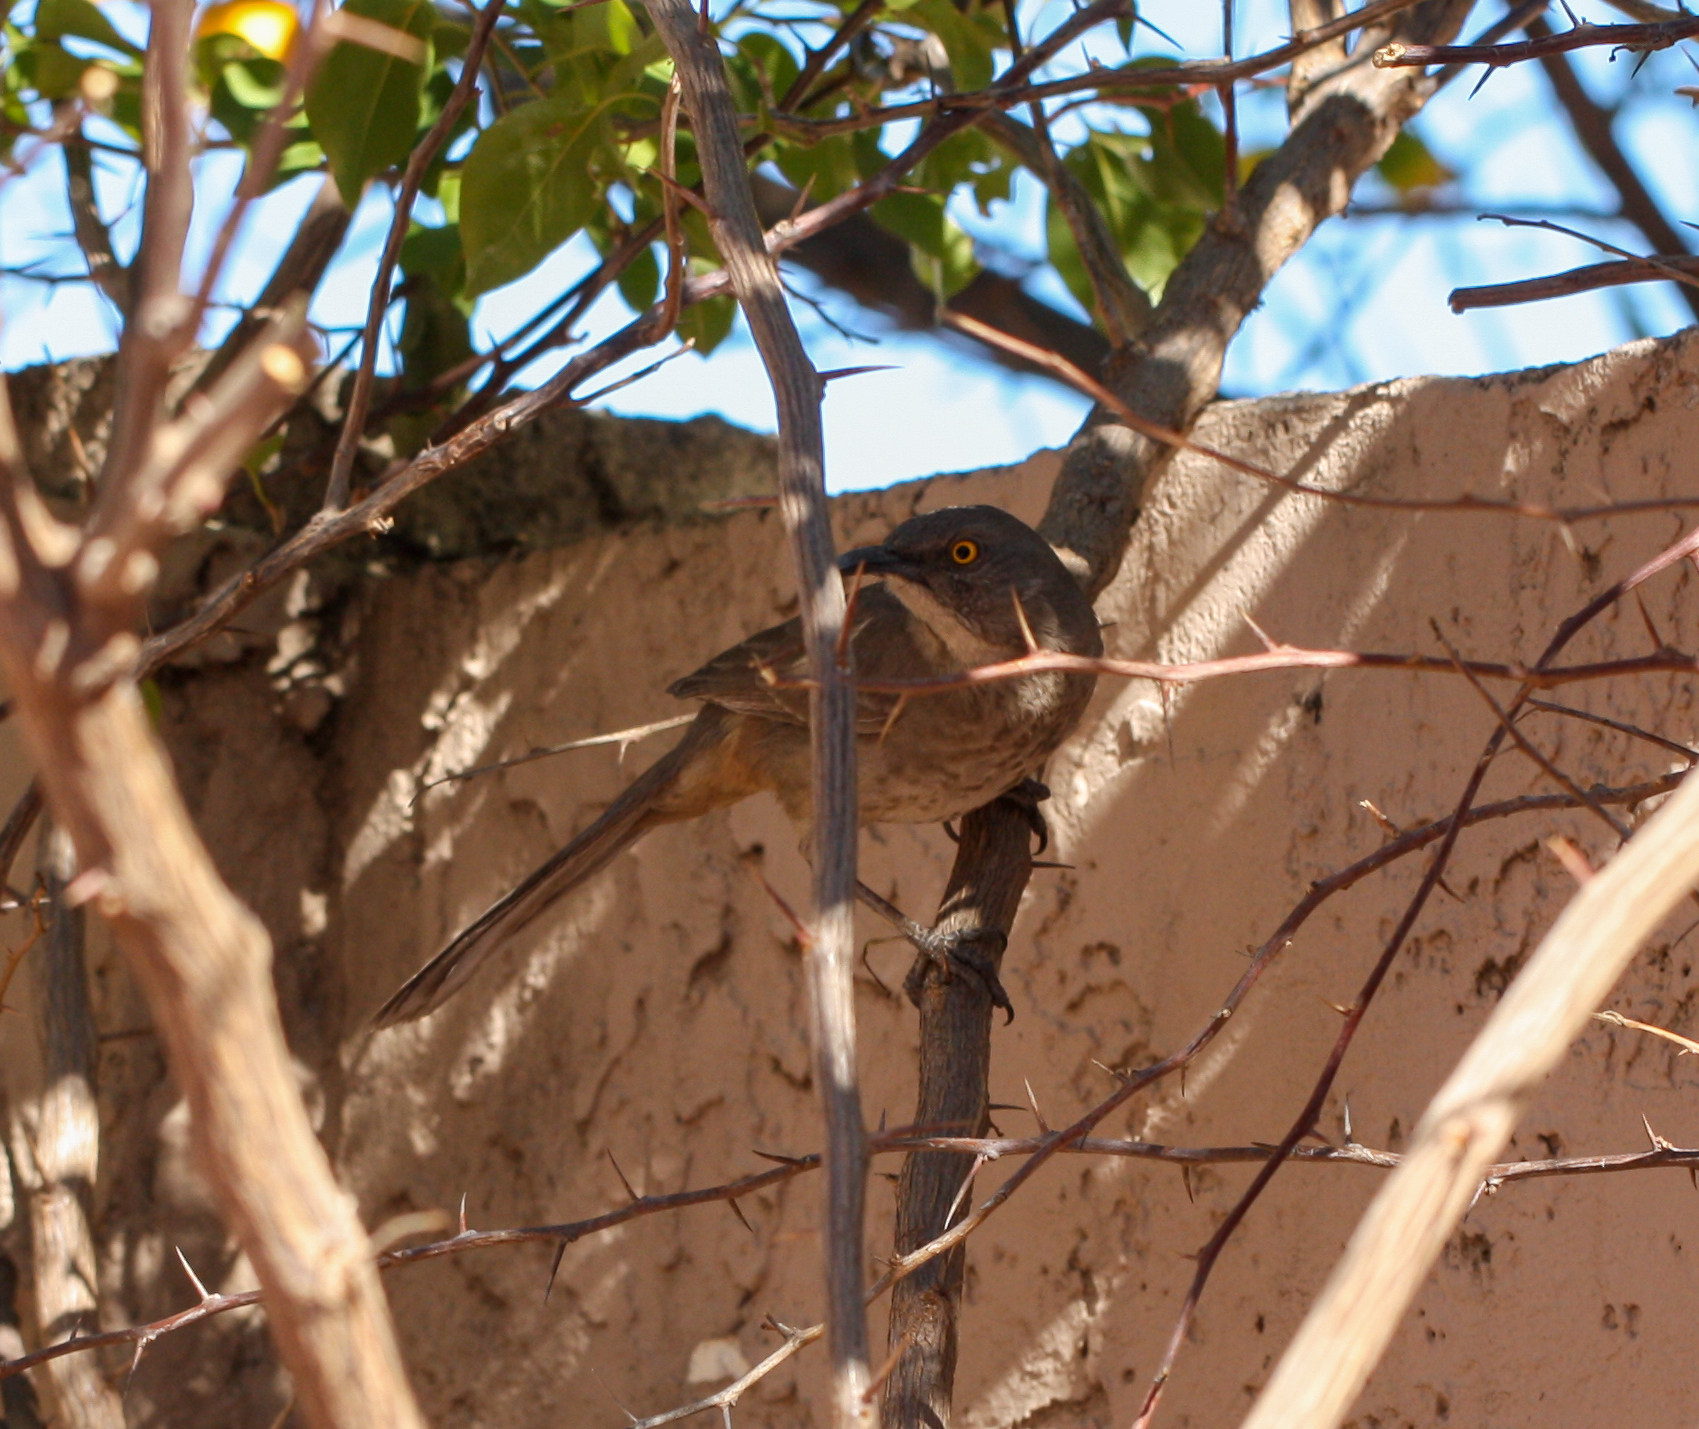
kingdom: Animalia
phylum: Chordata
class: Aves
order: Passeriformes
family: Mimidae
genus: Toxostoma
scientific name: Toxostoma curvirostre
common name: Curve-billed thrasher
